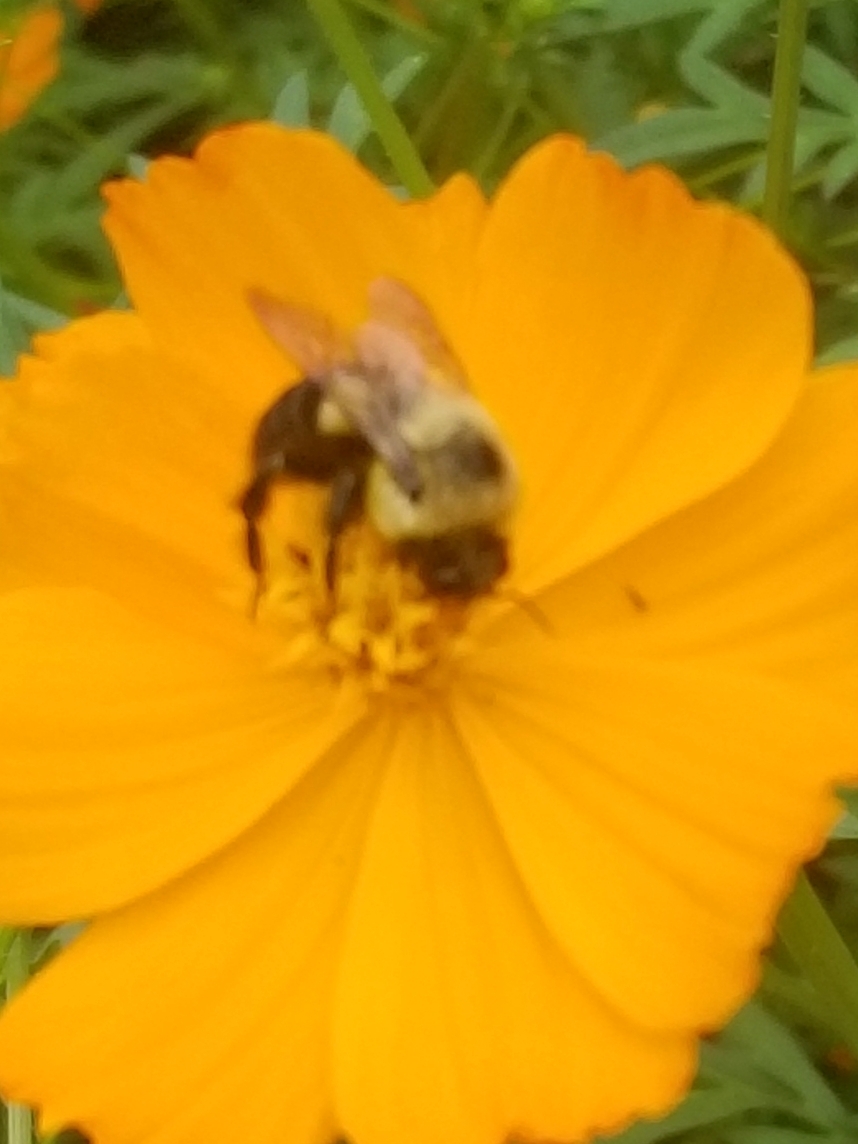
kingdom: Animalia
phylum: Arthropoda
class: Insecta
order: Hymenoptera
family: Apidae
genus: Bombus
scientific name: Bombus impatiens
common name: Common eastern bumble bee
